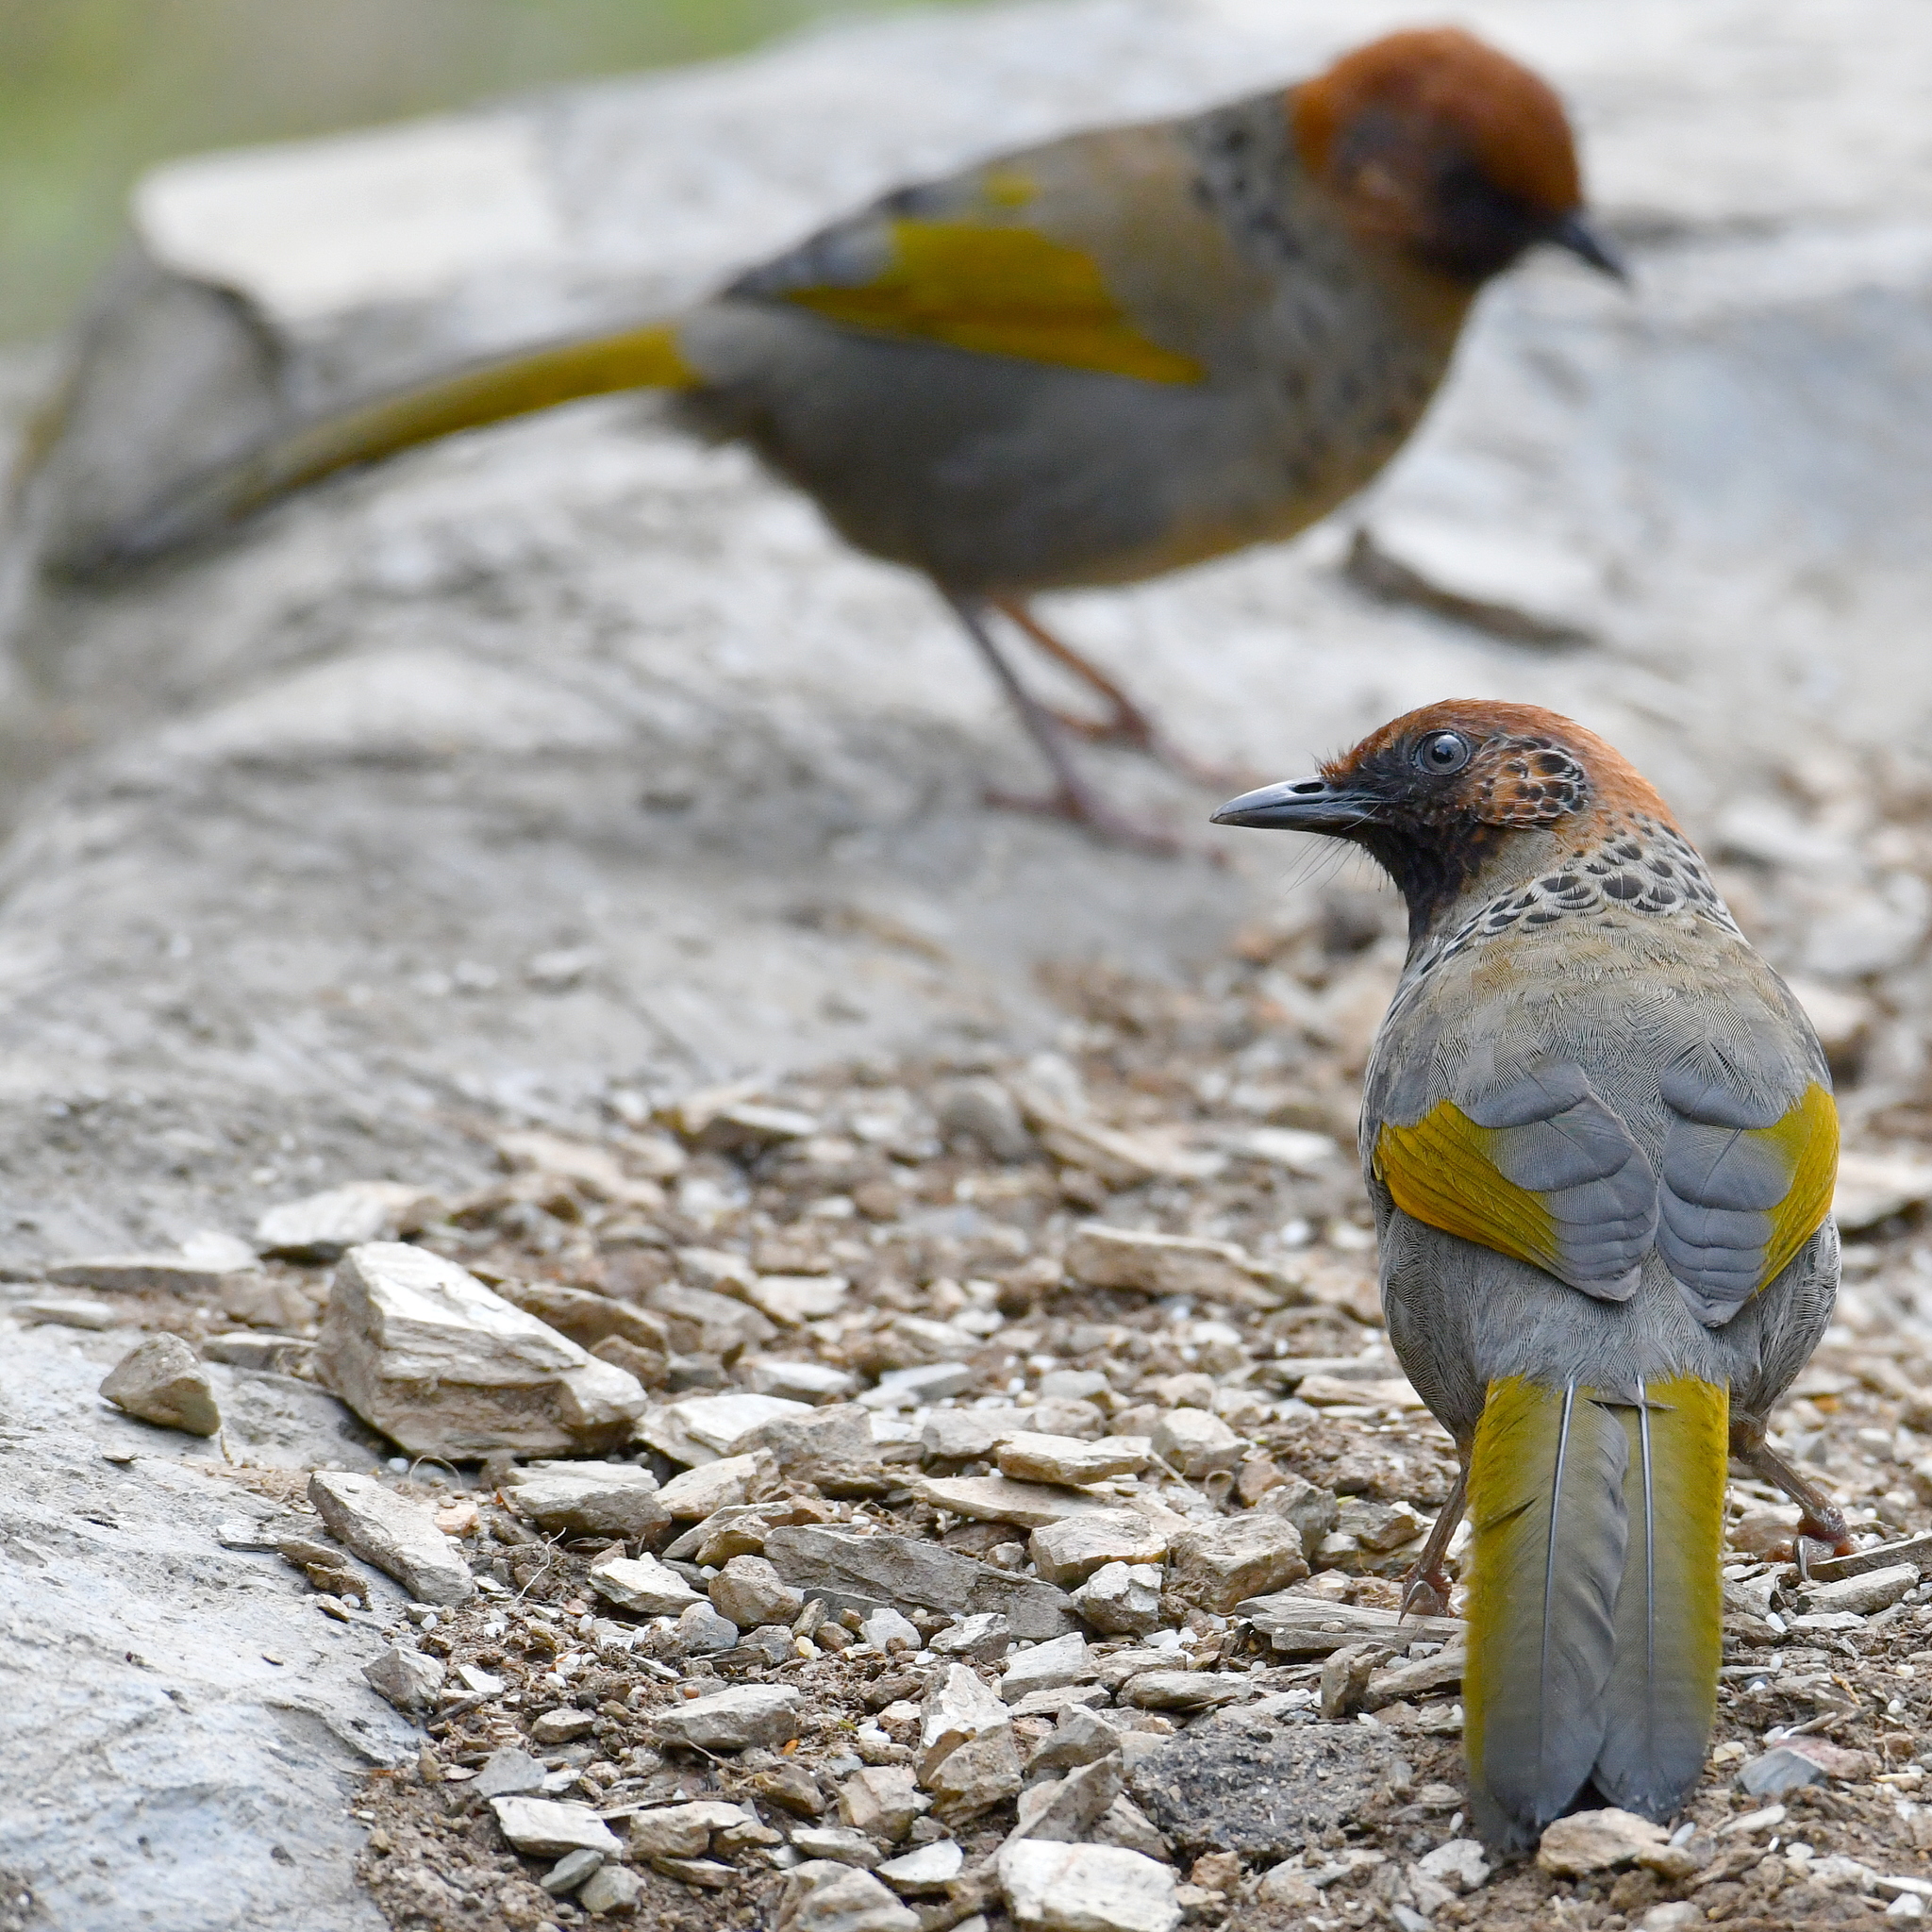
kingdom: Animalia
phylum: Chordata
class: Aves
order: Passeriformes
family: Leiothrichidae
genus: Trochalopteron
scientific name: Trochalopteron erythrocephalum
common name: Chestnut-crowned laughingthrush
